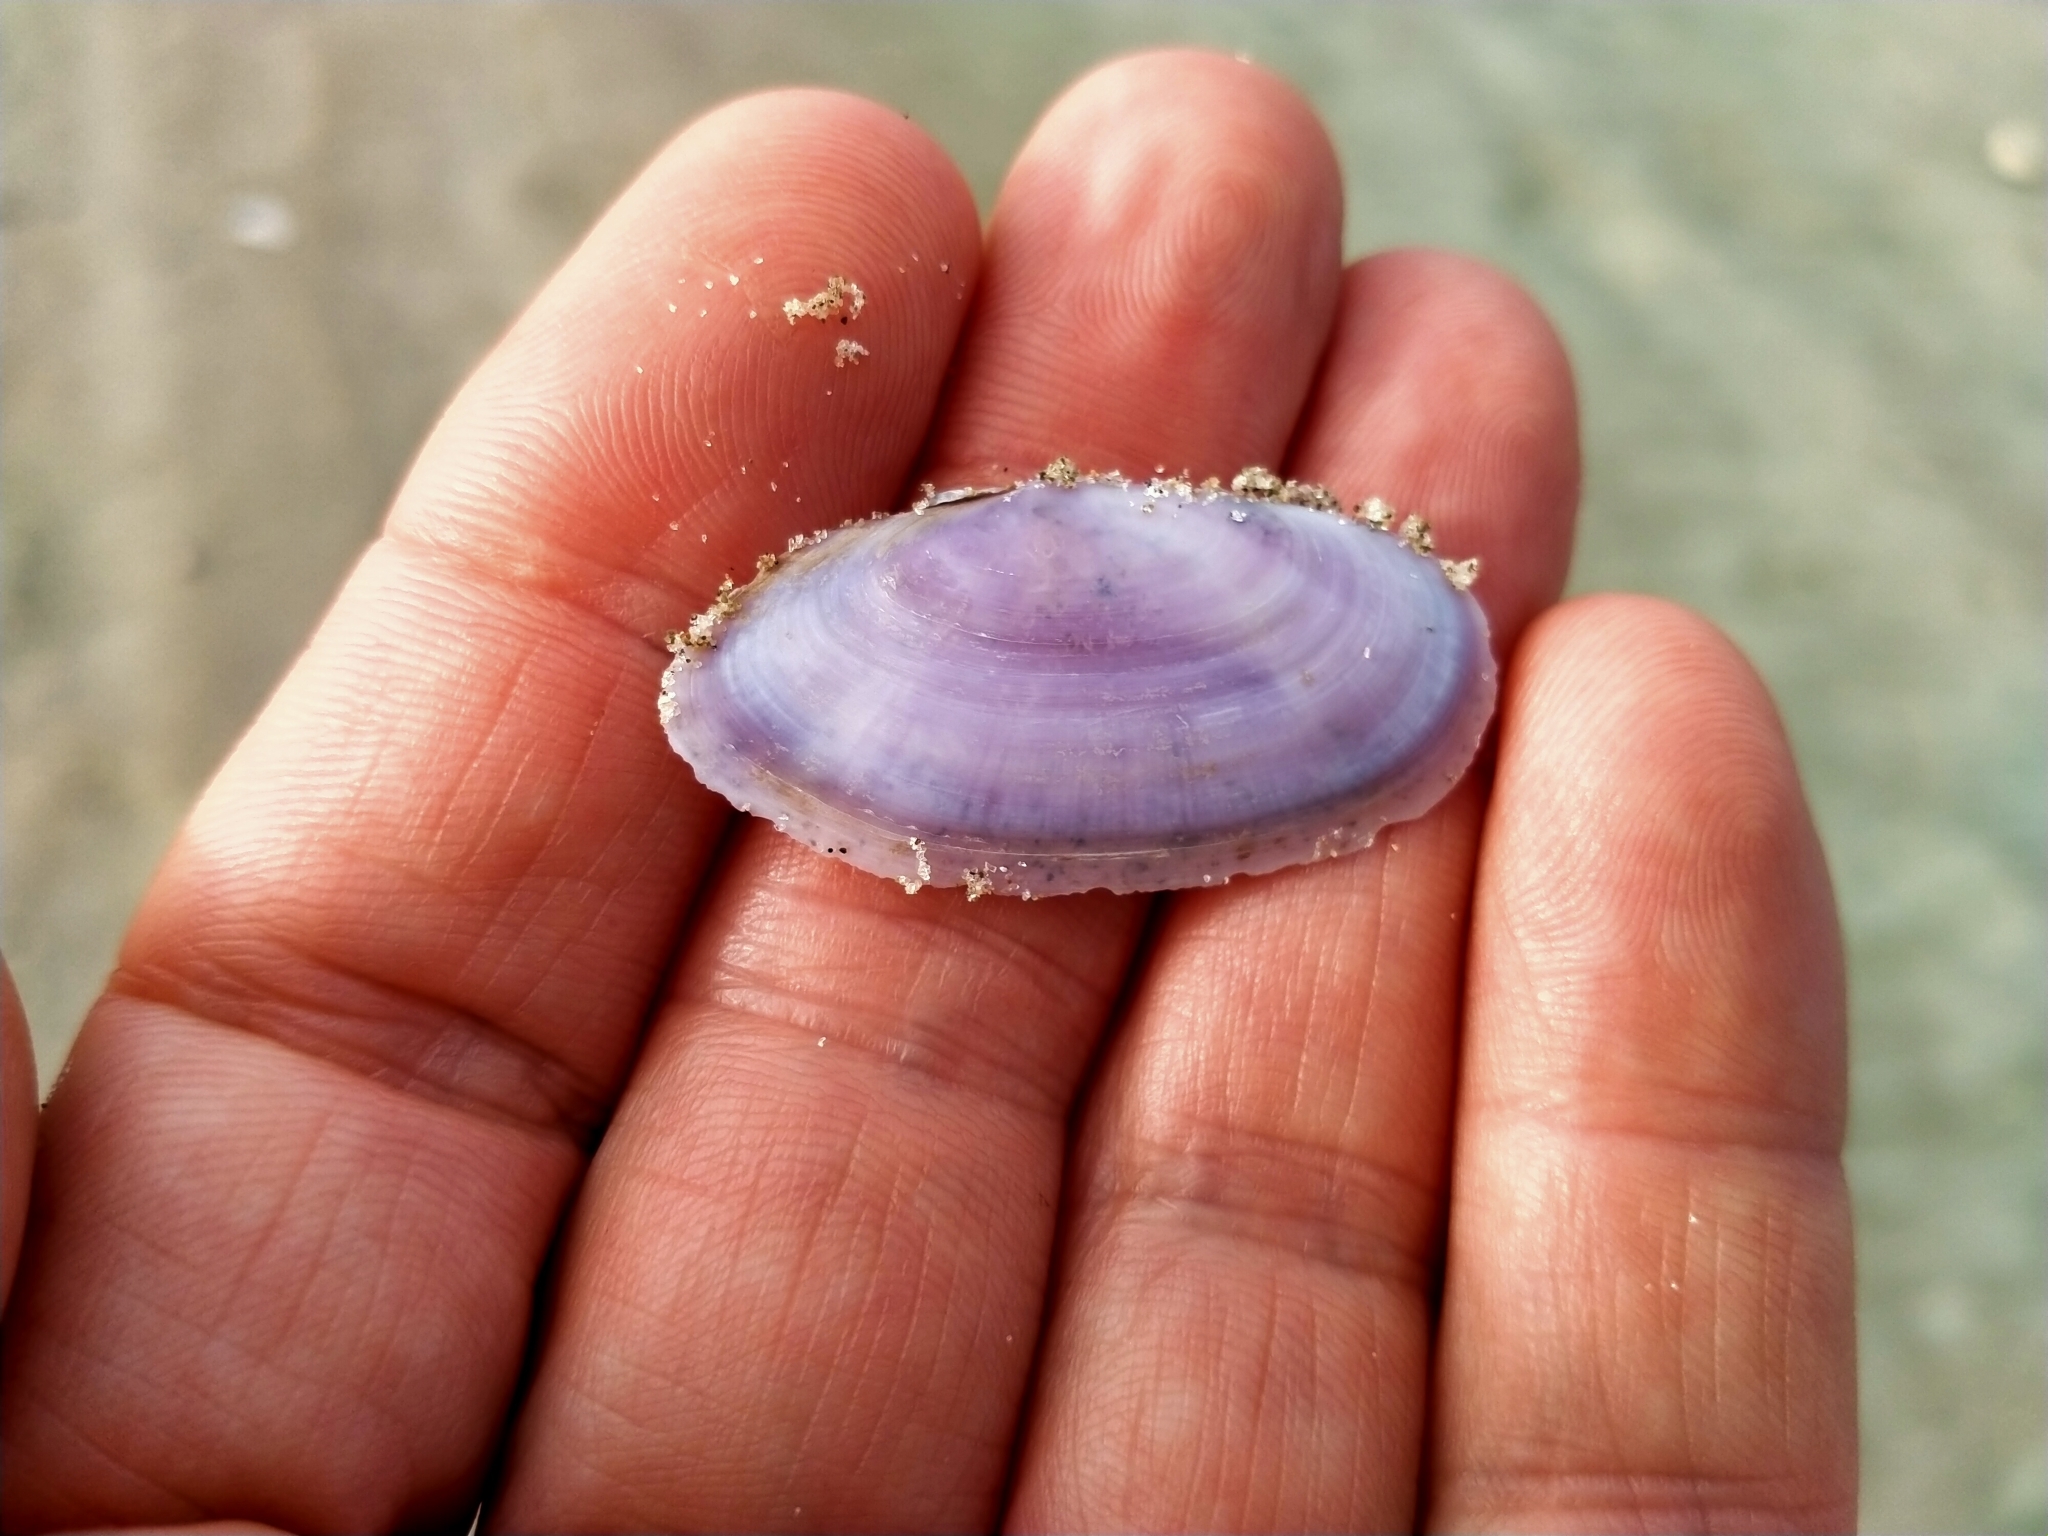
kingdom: Animalia
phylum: Mollusca
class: Bivalvia
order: Cardiida
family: Psammobiidae
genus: Hiatula
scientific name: Hiatula nitida
